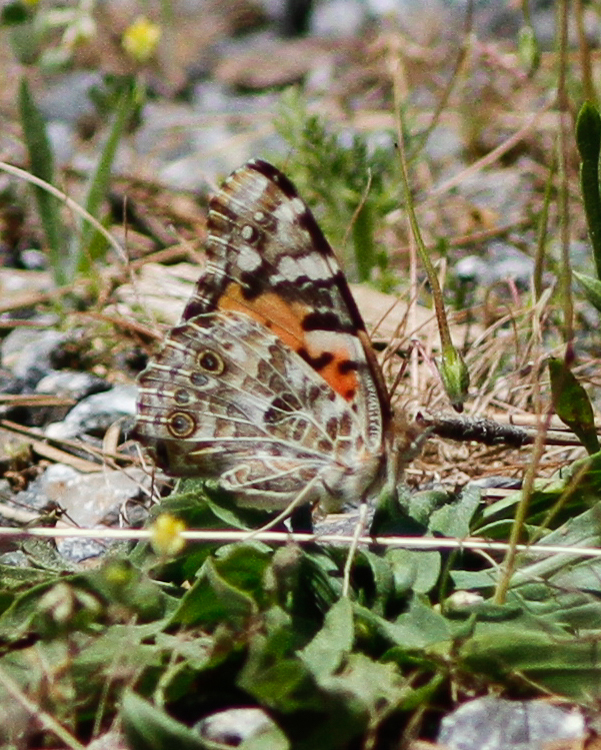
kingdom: Animalia
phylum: Arthropoda
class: Insecta
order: Lepidoptera
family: Nymphalidae
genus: Vanessa
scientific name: Vanessa cardui
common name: Painted lady
